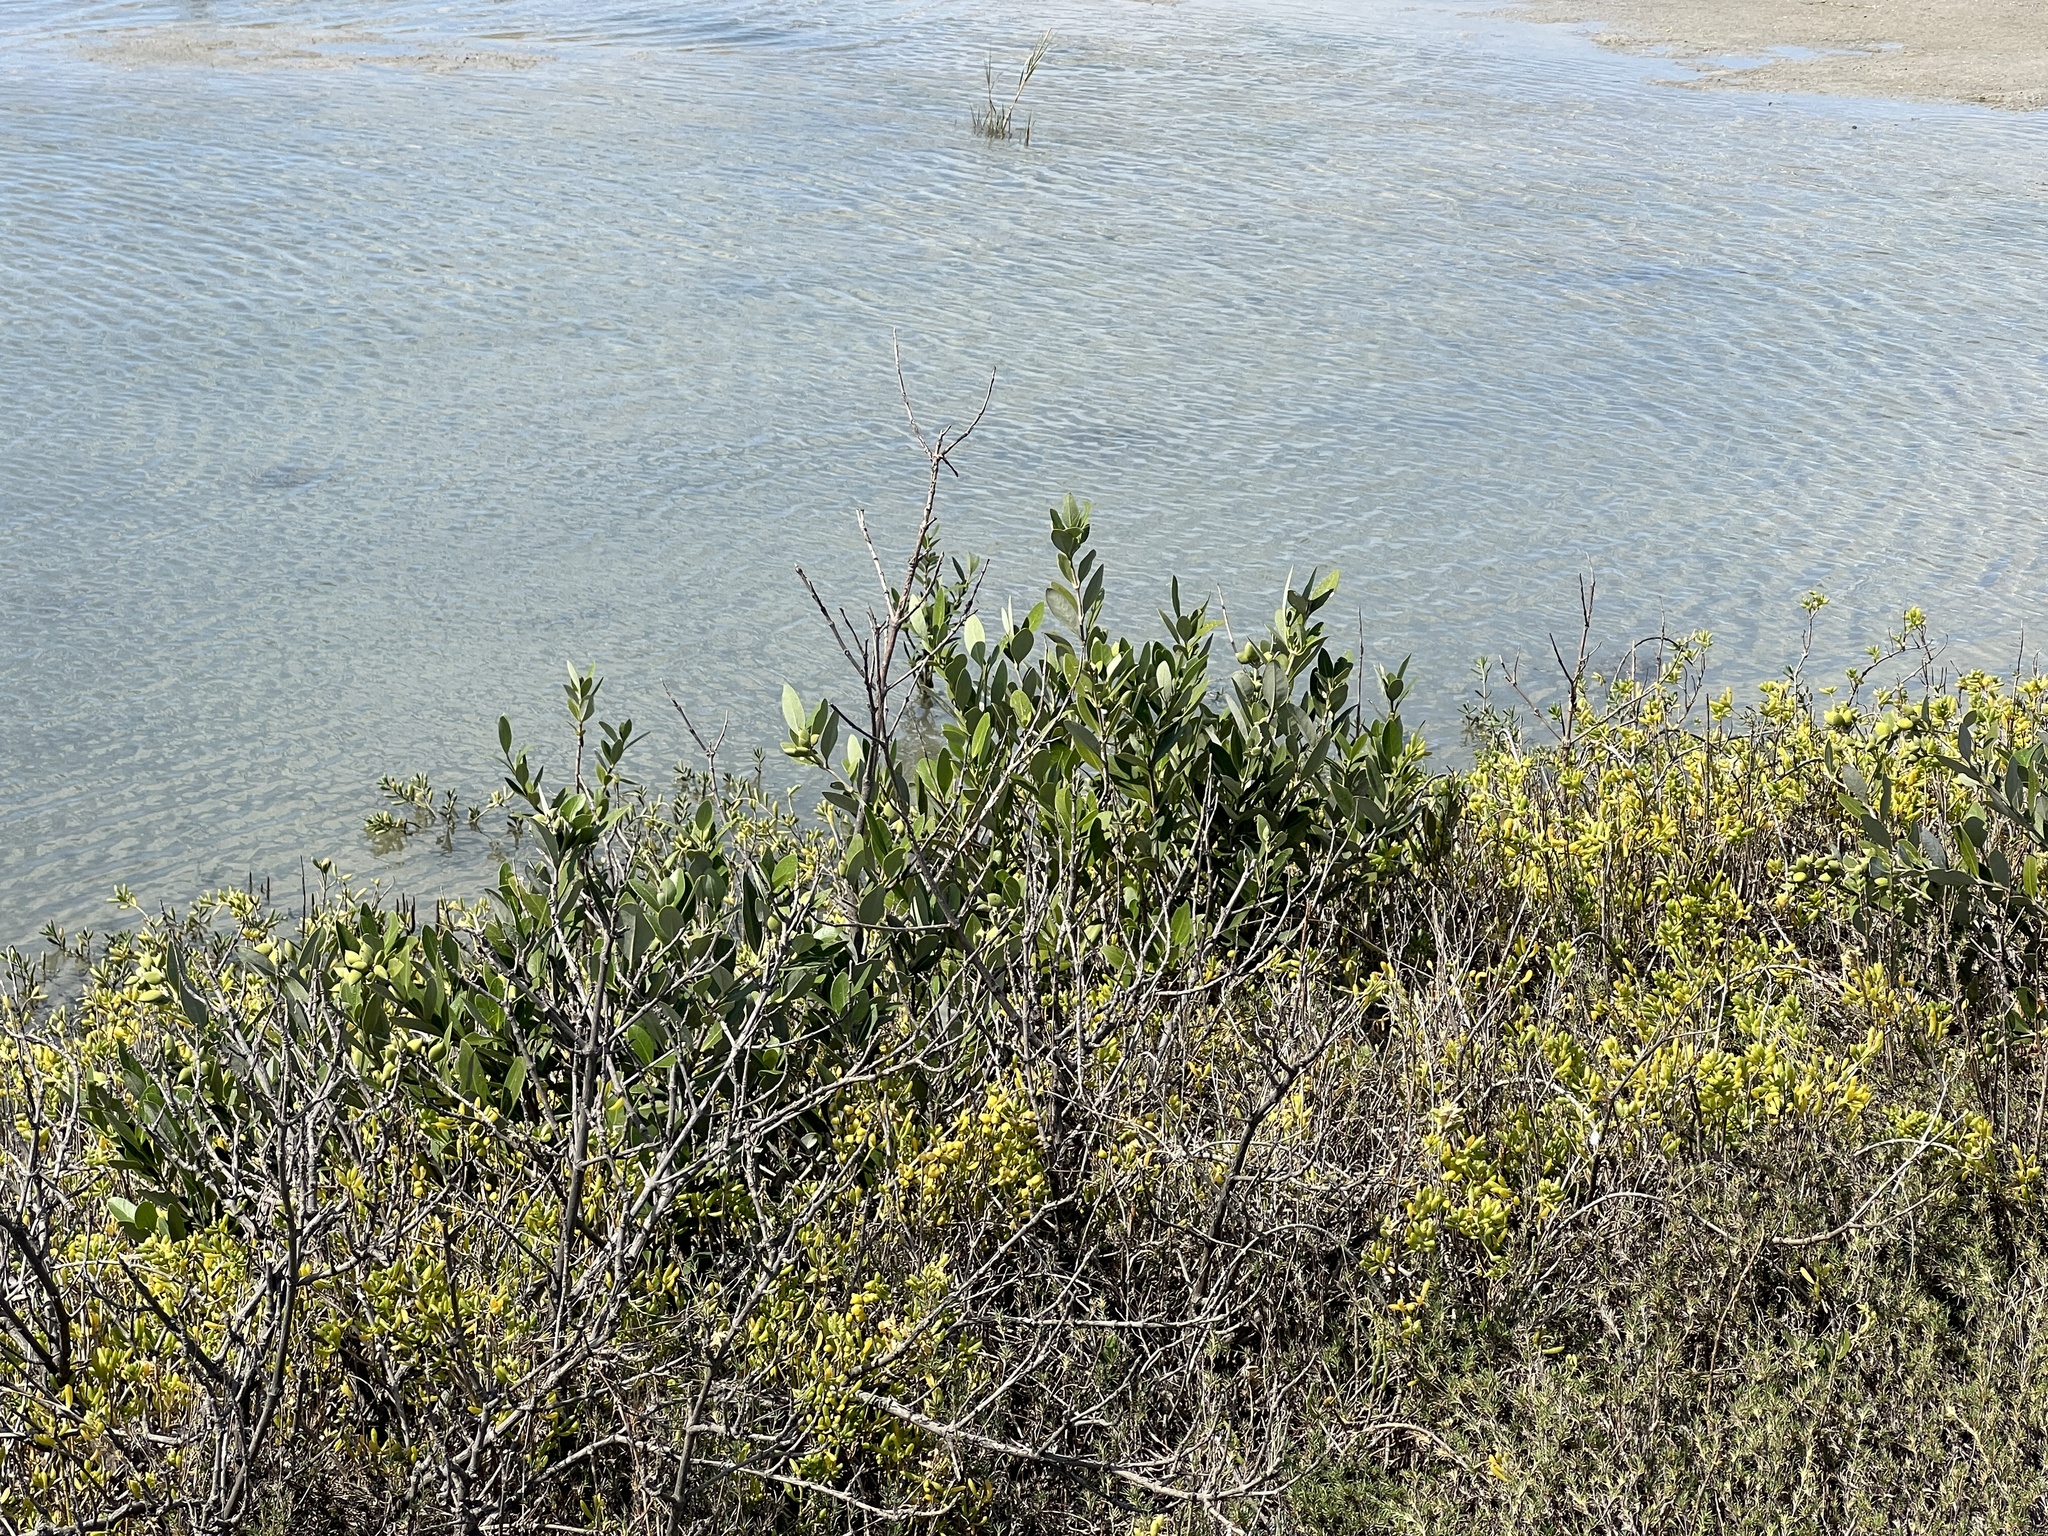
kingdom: Plantae
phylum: Tracheophyta
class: Magnoliopsida
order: Lamiales
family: Acanthaceae
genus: Avicennia
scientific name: Avicennia germinans
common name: Black mangrove
